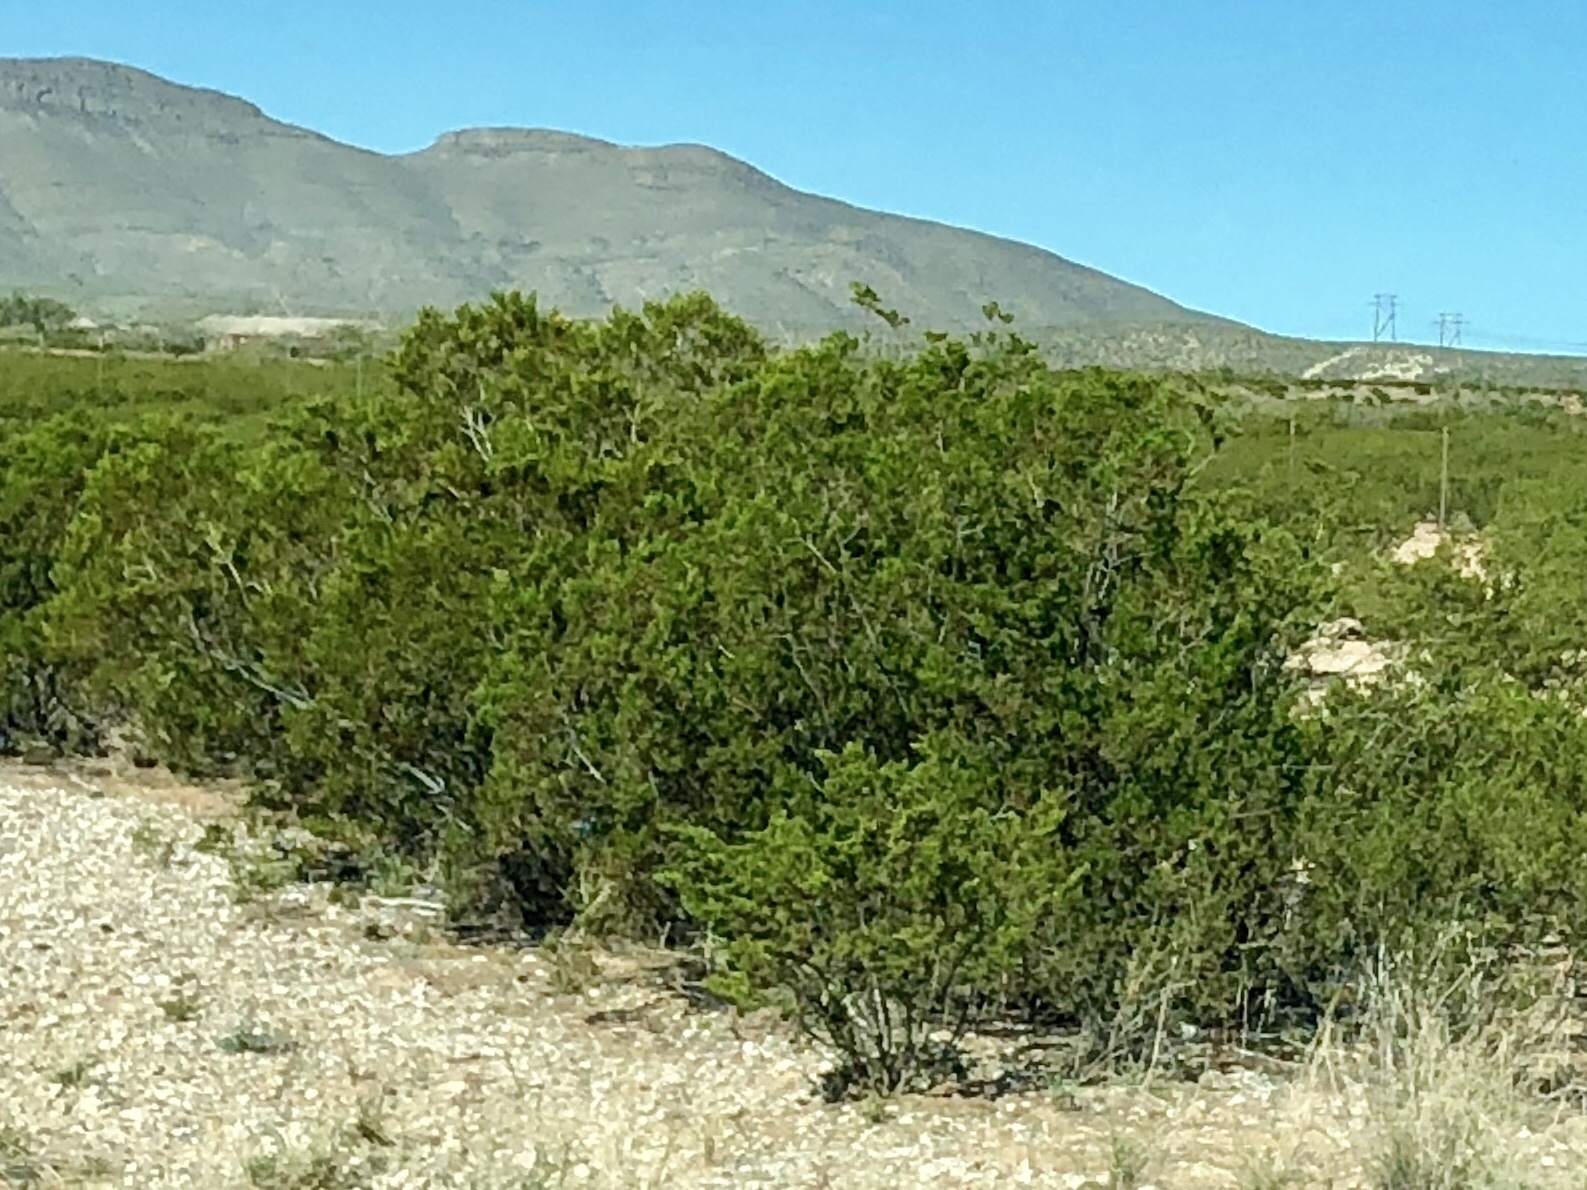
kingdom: Plantae
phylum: Tracheophyta
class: Magnoliopsida
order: Zygophyllales
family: Zygophyllaceae
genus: Larrea
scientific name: Larrea tridentata
